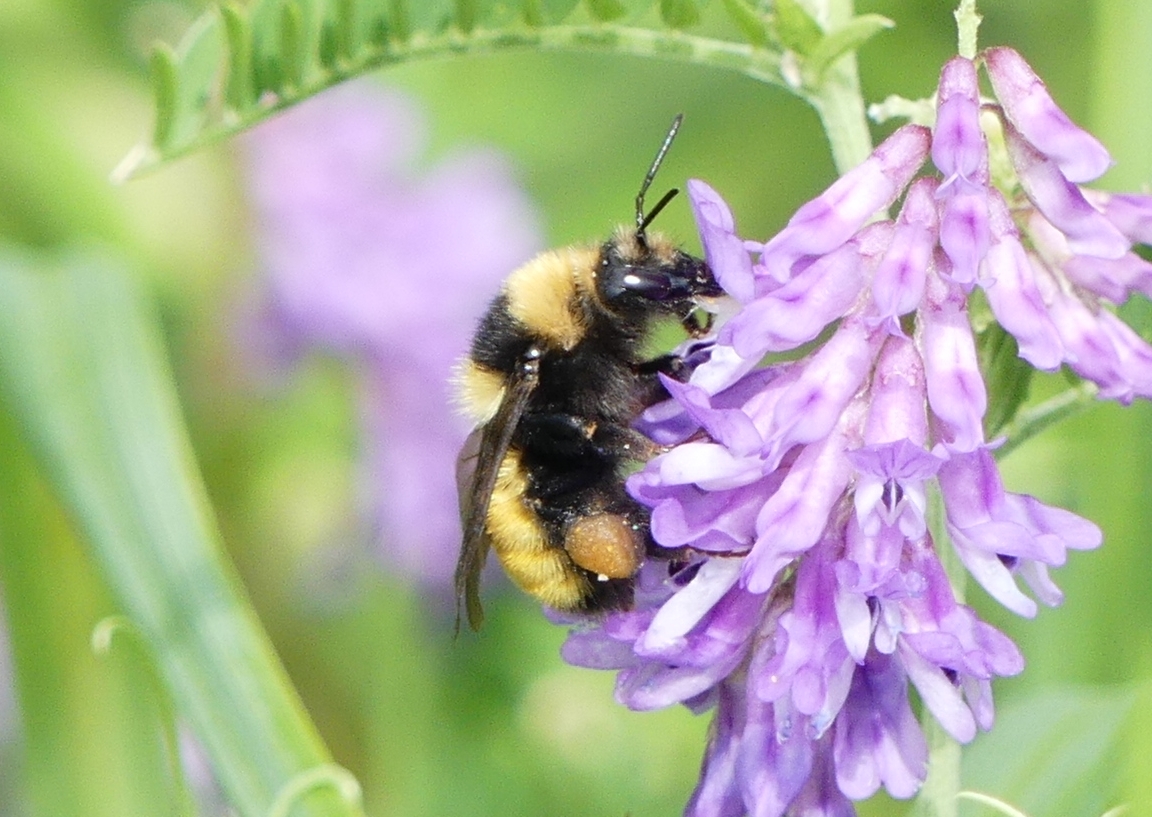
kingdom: Animalia
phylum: Arthropoda
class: Insecta
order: Hymenoptera
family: Apidae
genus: Bombus
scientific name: Bombus borealis
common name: Northern amber bumble bee
